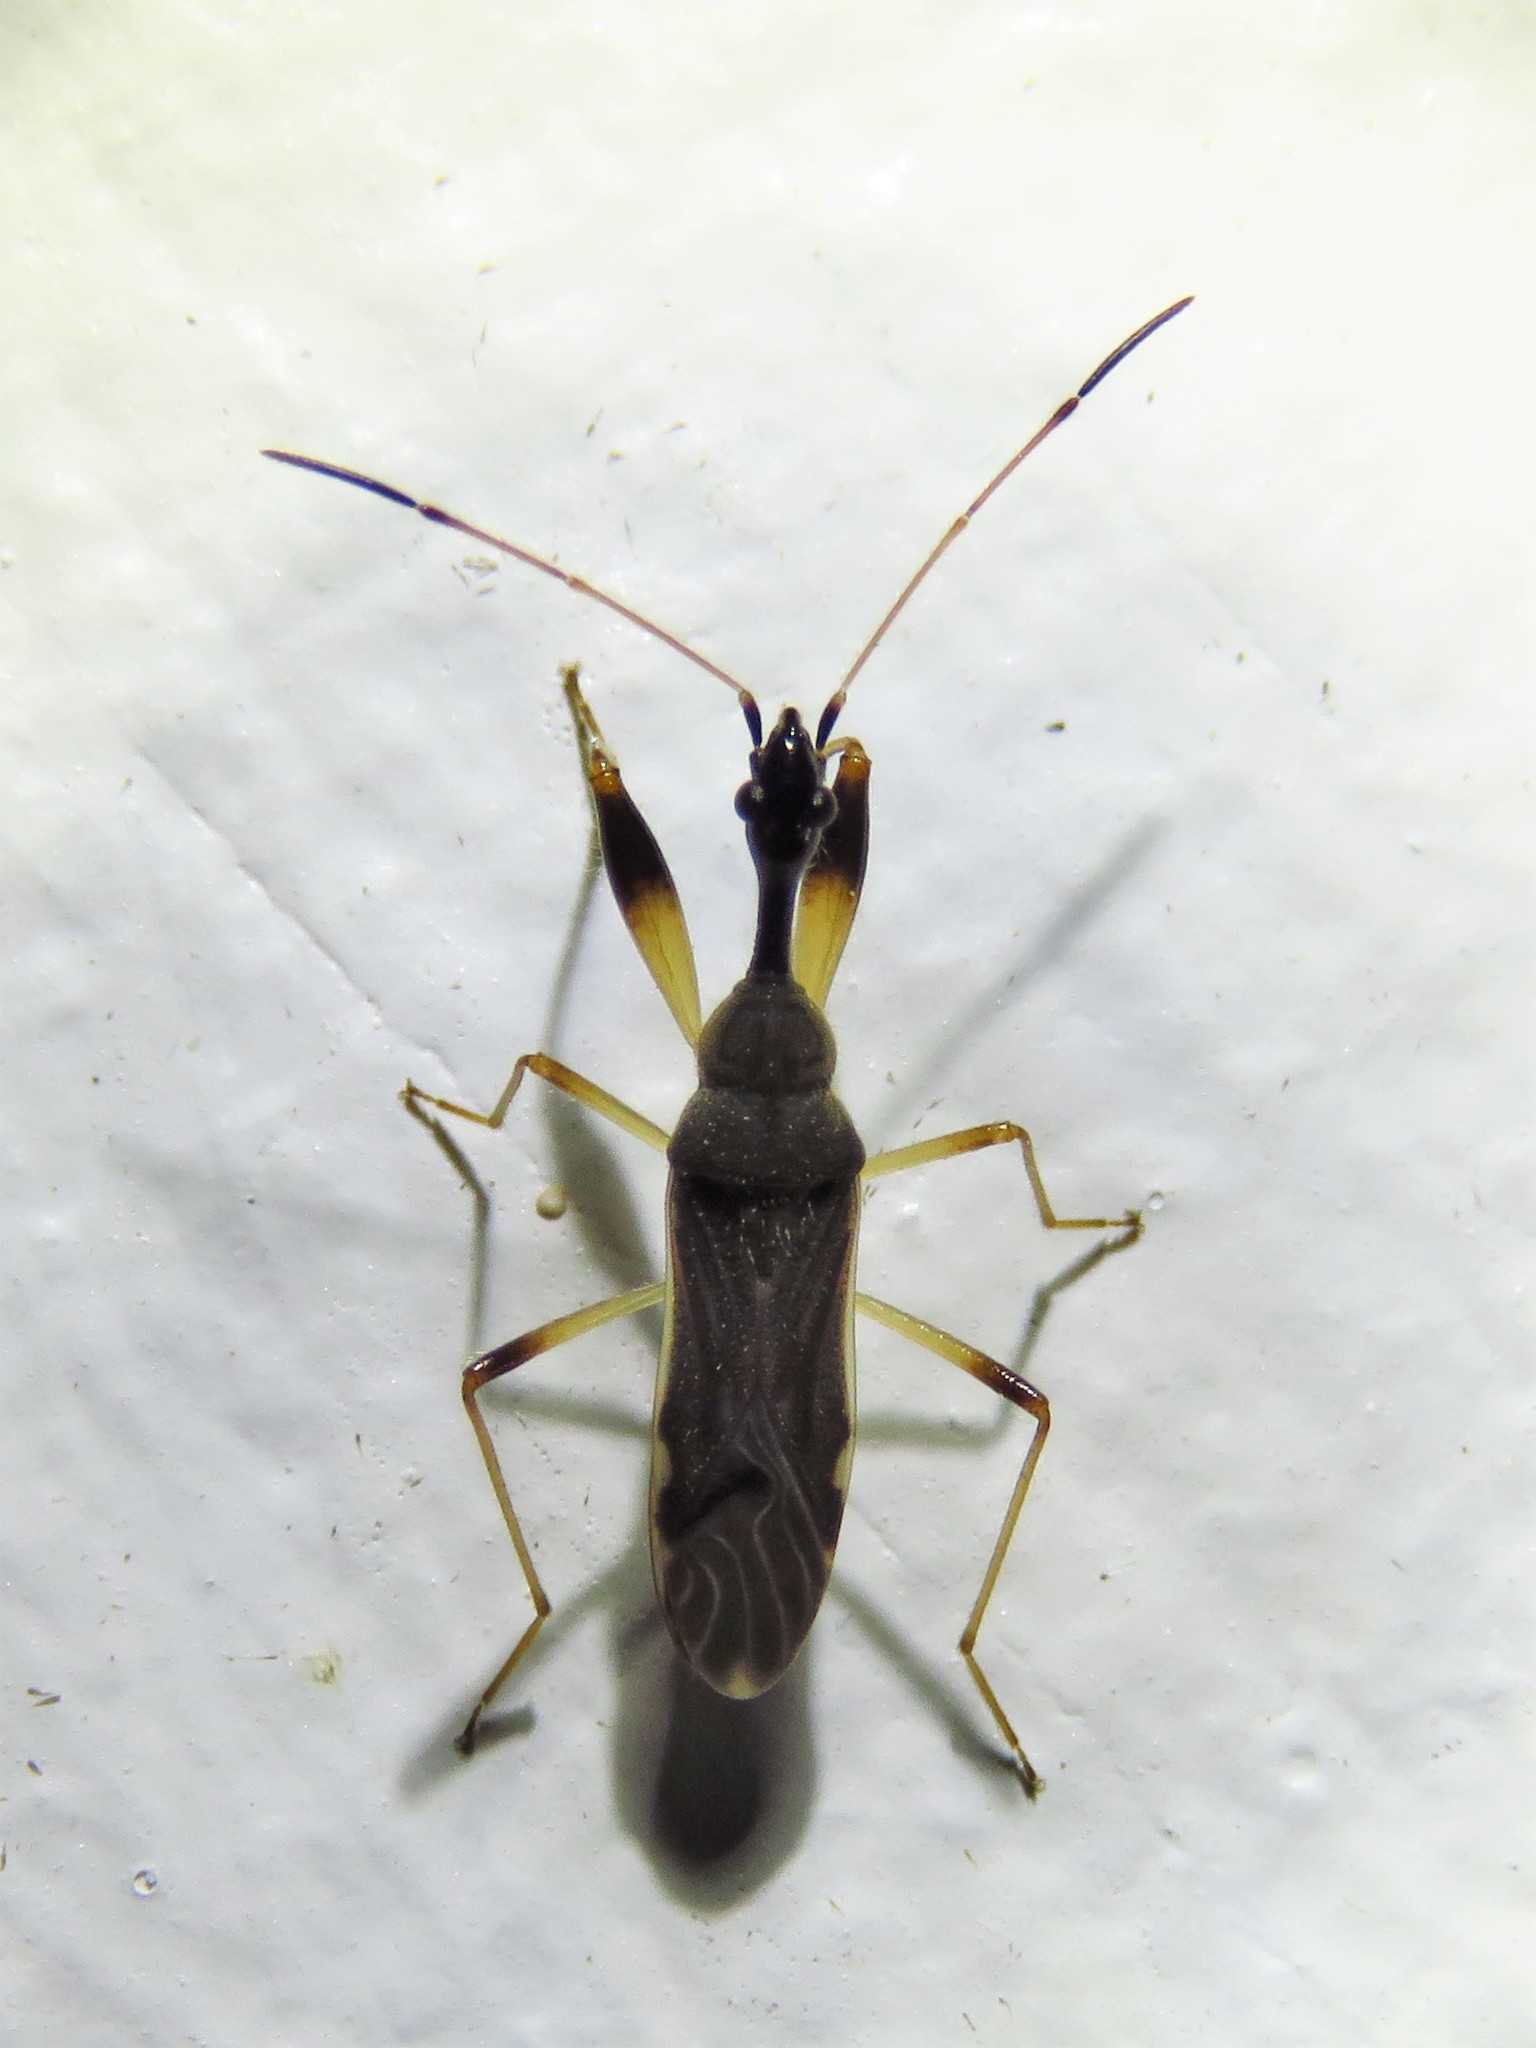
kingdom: Animalia
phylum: Arthropoda
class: Insecta
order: Hemiptera
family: Rhyparochromidae
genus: Myodocha
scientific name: Myodocha serripes
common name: Long-necked seed bug
